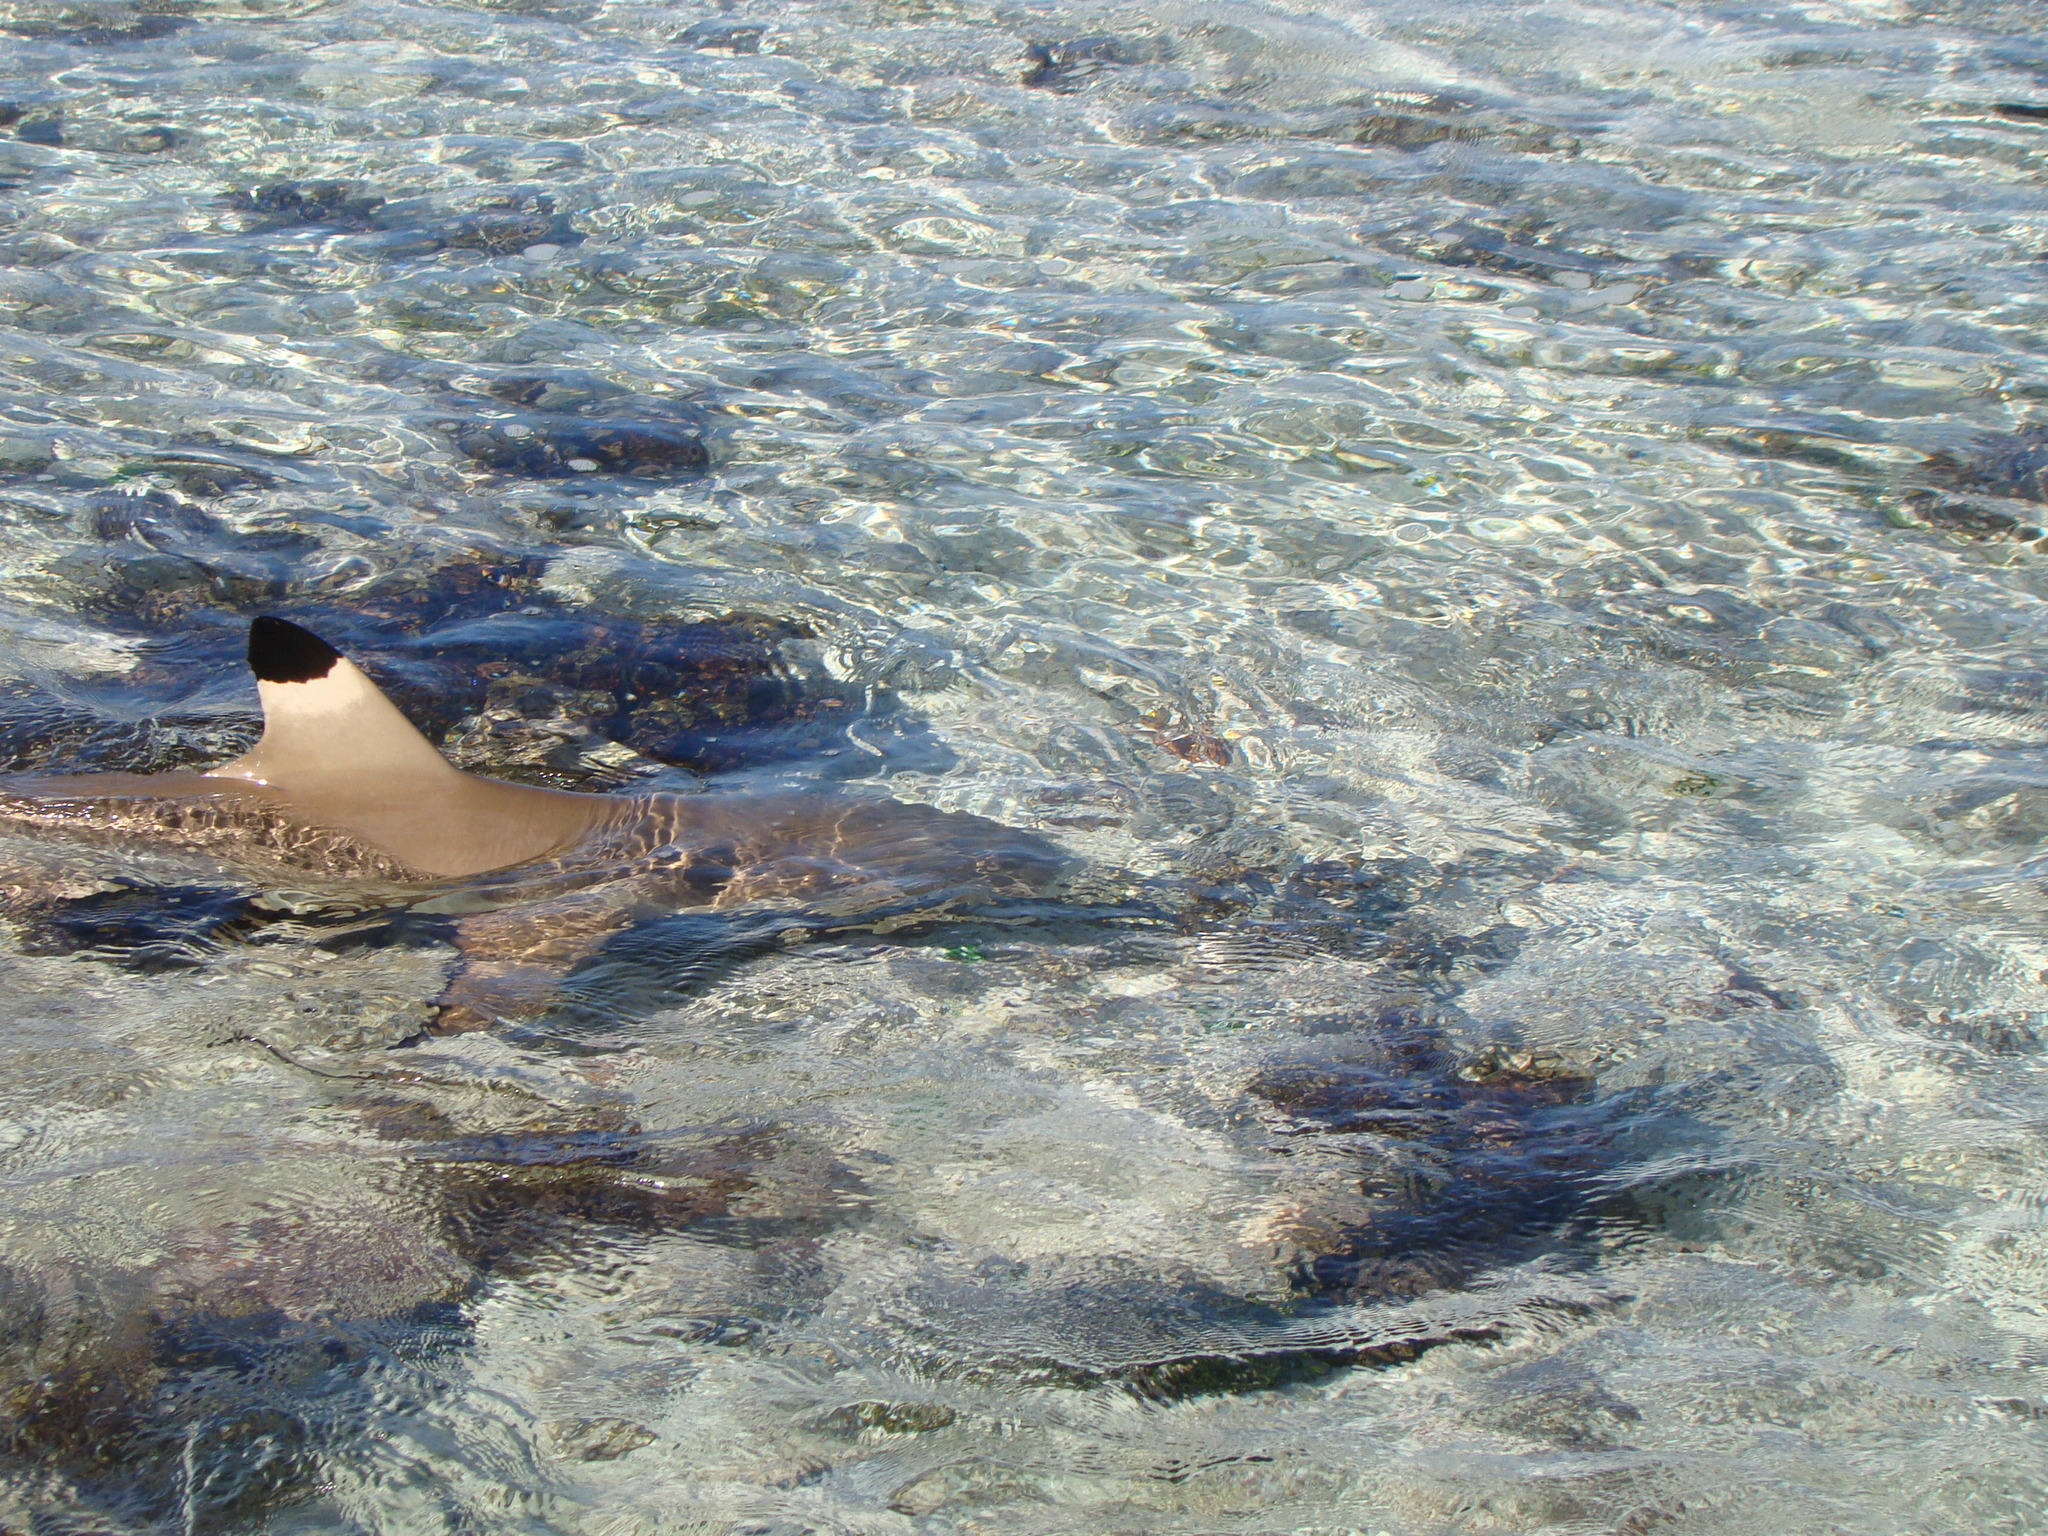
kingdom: Animalia
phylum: Chordata
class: Elasmobranchii
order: Carcharhiniformes
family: Carcharhinidae
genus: Carcharhinus
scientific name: Carcharhinus melanopterus
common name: Blacktip reef shark
